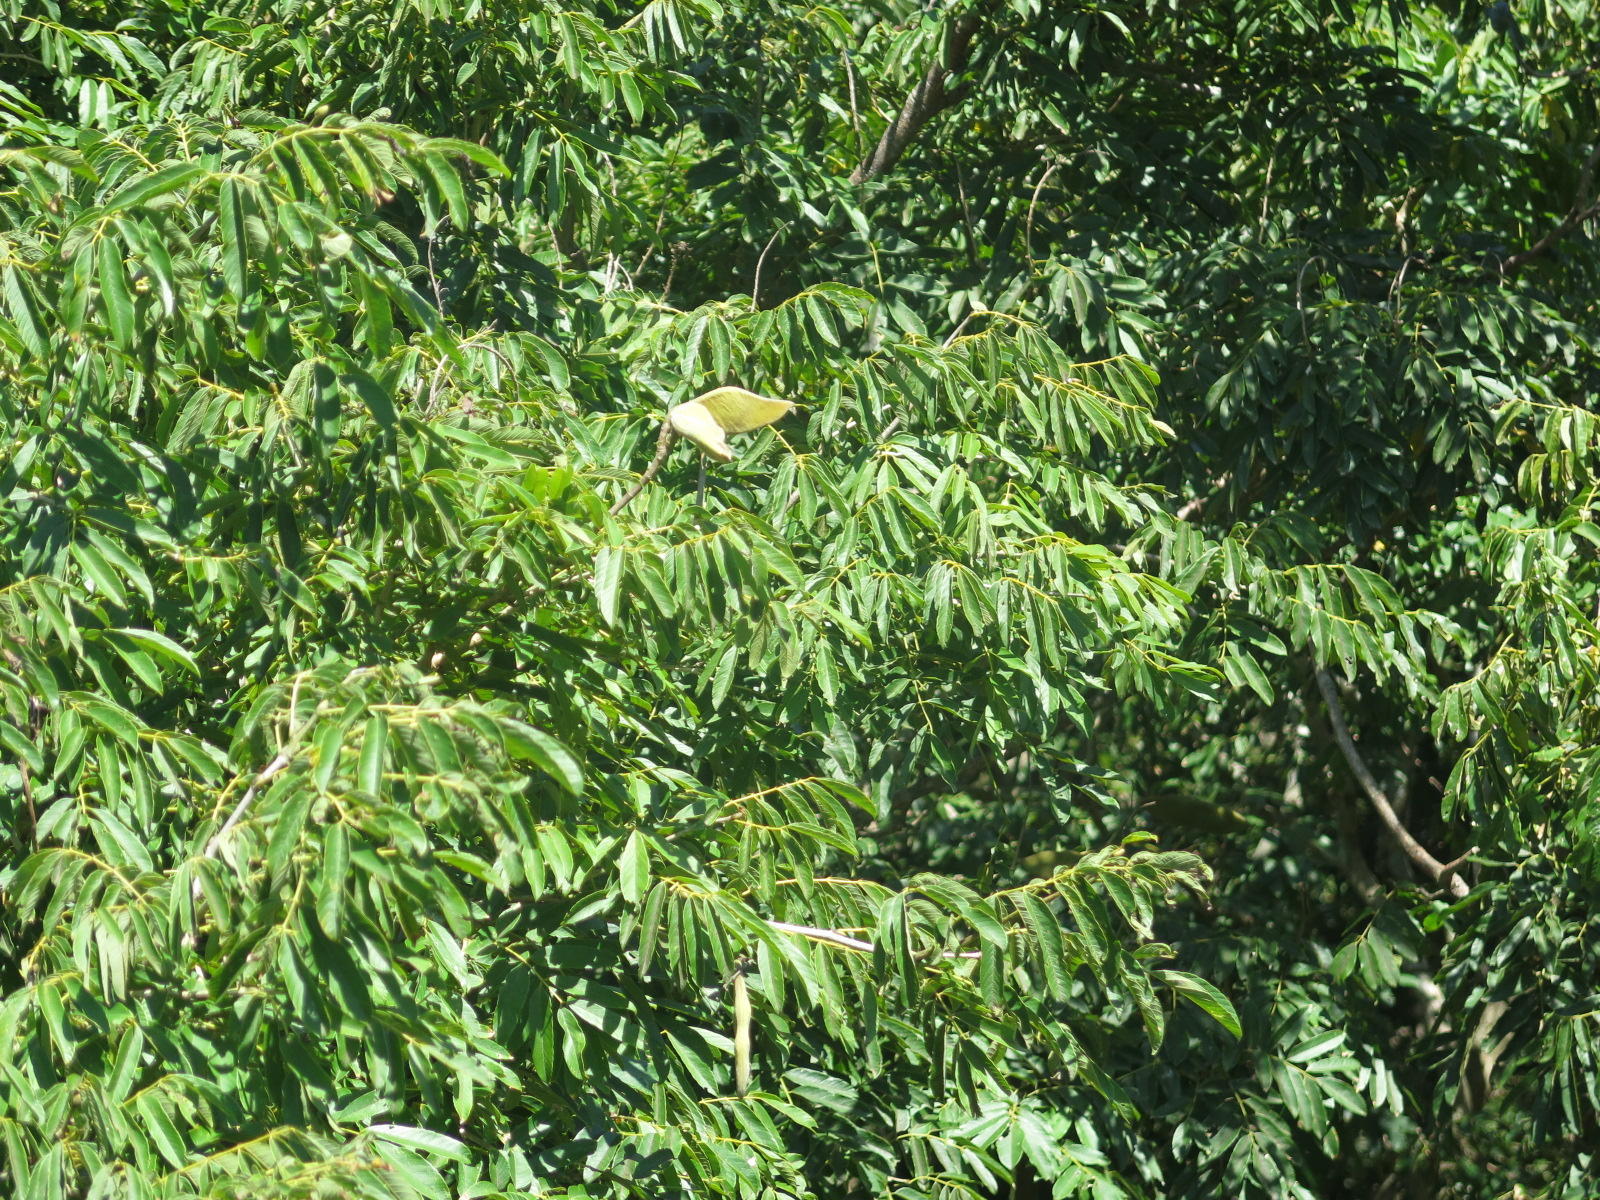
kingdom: Plantae
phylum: Tracheophyta
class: Magnoliopsida
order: Fabales
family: Fabaceae
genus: Millettia
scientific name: Millettia grandis
